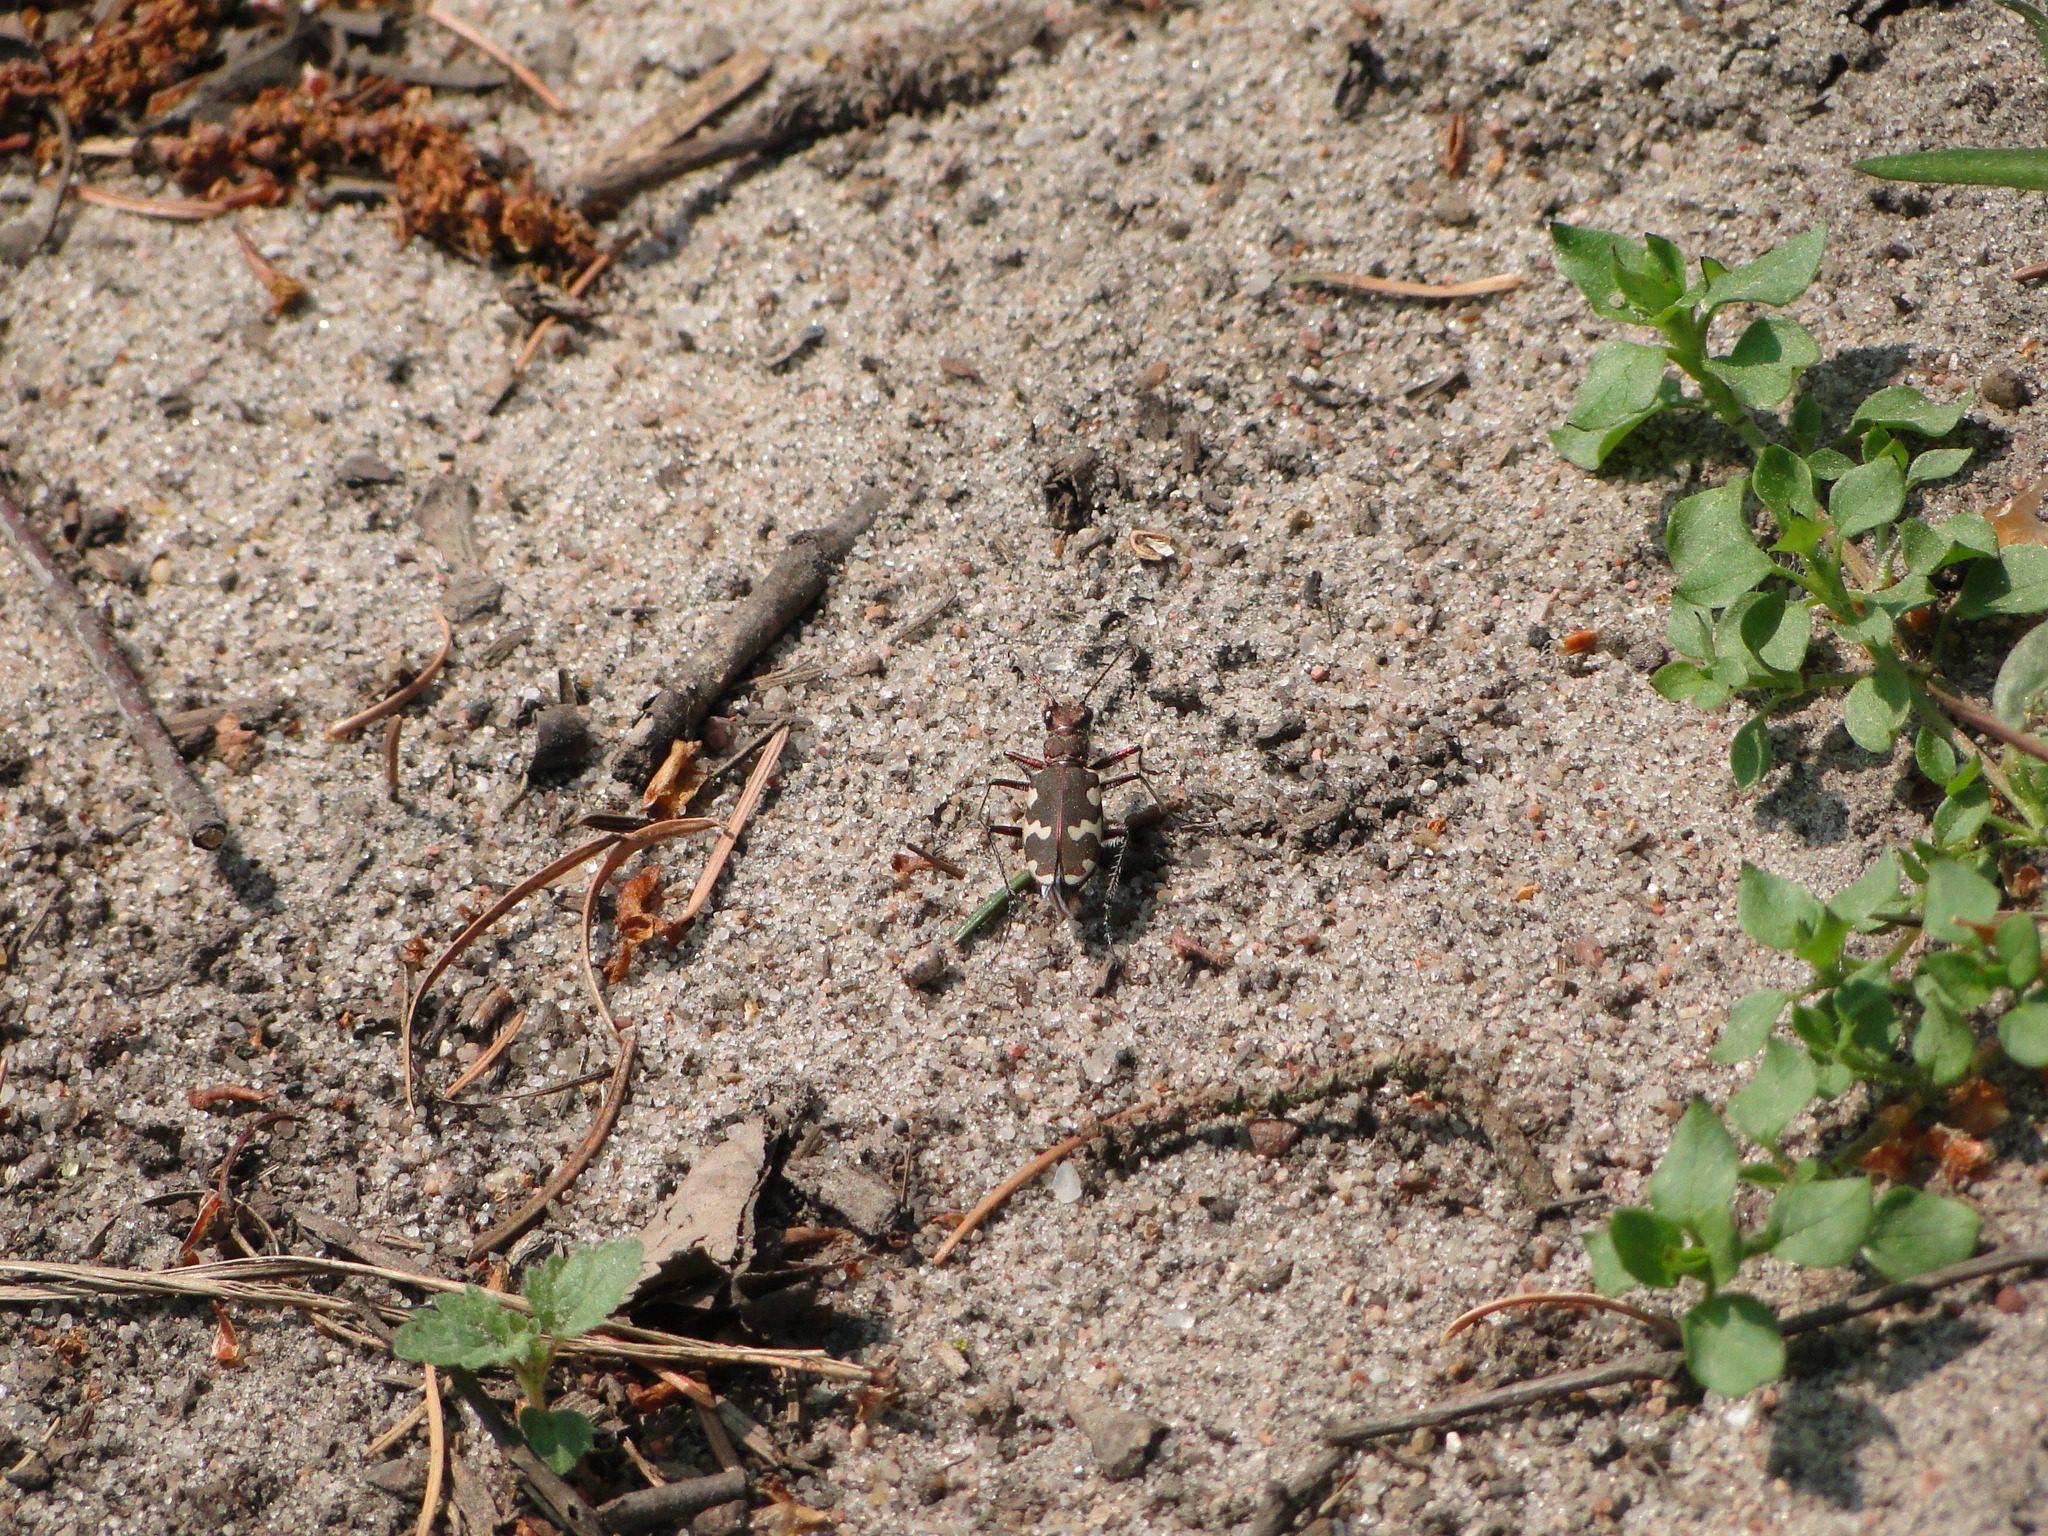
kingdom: Animalia
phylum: Arthropoda
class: Insecta
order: Coleoptera
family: Carabidae
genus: Cicindela
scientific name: Cicindela hybrida
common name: Northern dune tiger beetle
